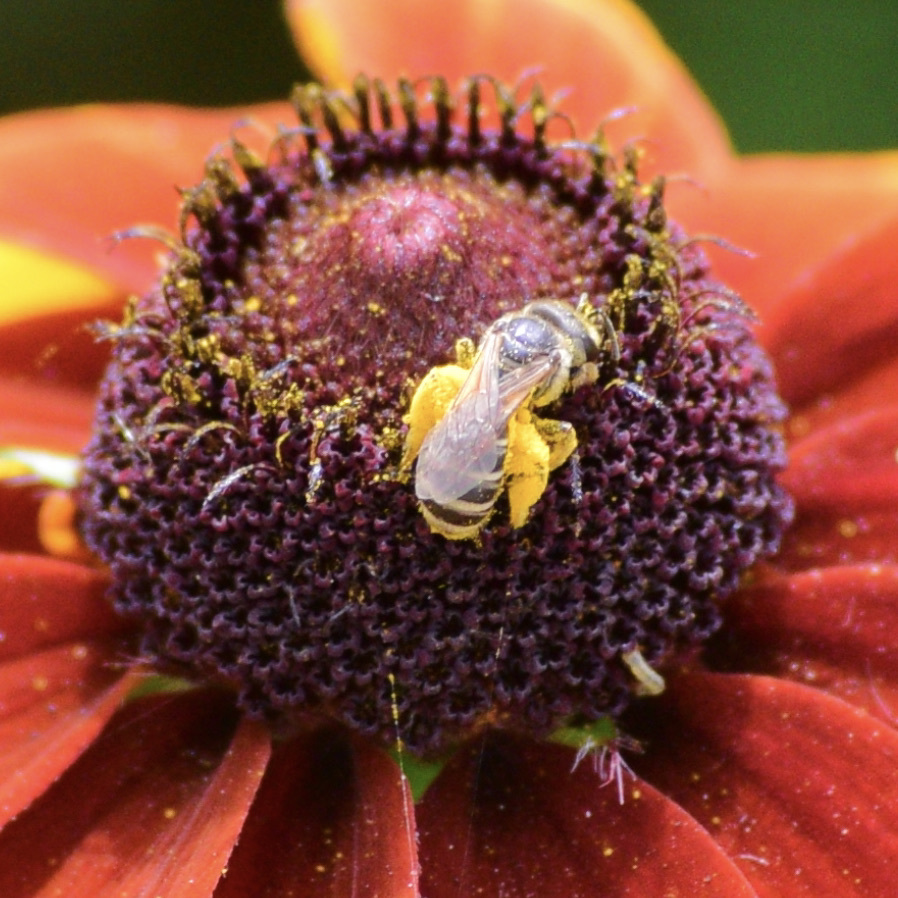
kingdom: Animalia
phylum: Arthropoda
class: Insecta
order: Hymenoptera
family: Halictidae
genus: Halictus
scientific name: Halictus ligatus
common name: Ligated furrow bee
